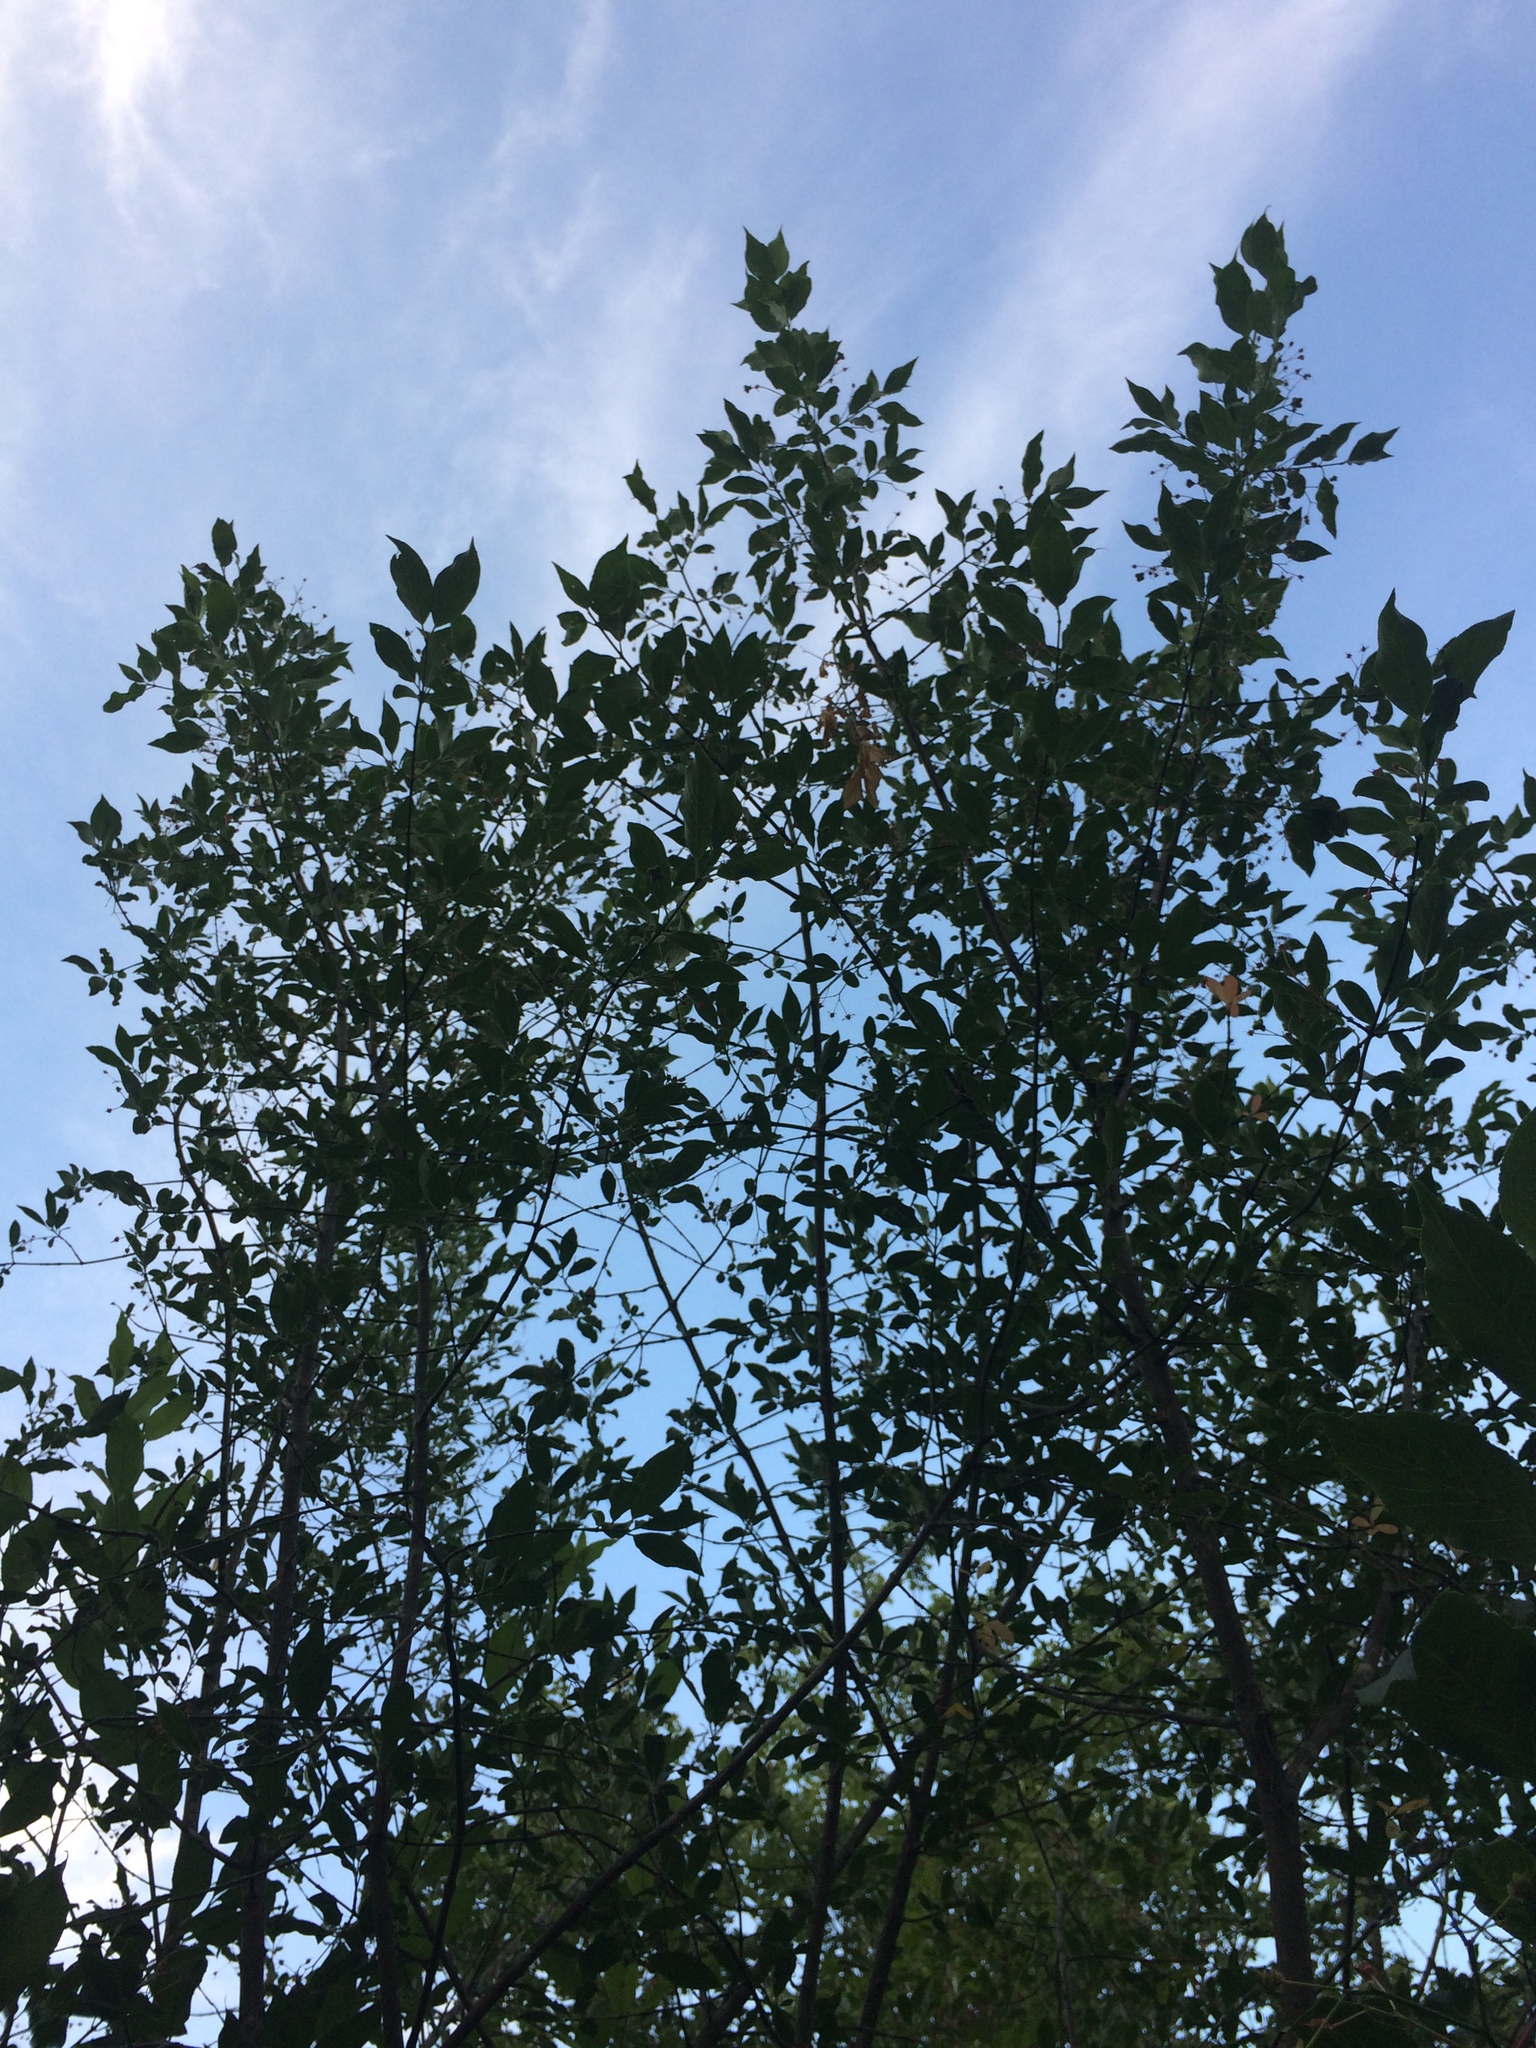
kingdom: Plantae
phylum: Tracheophyta
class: Magnoliopsida
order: Celastrales
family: Celastraceae
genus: Euonymus
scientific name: Euonymus europaeus
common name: Spindle
